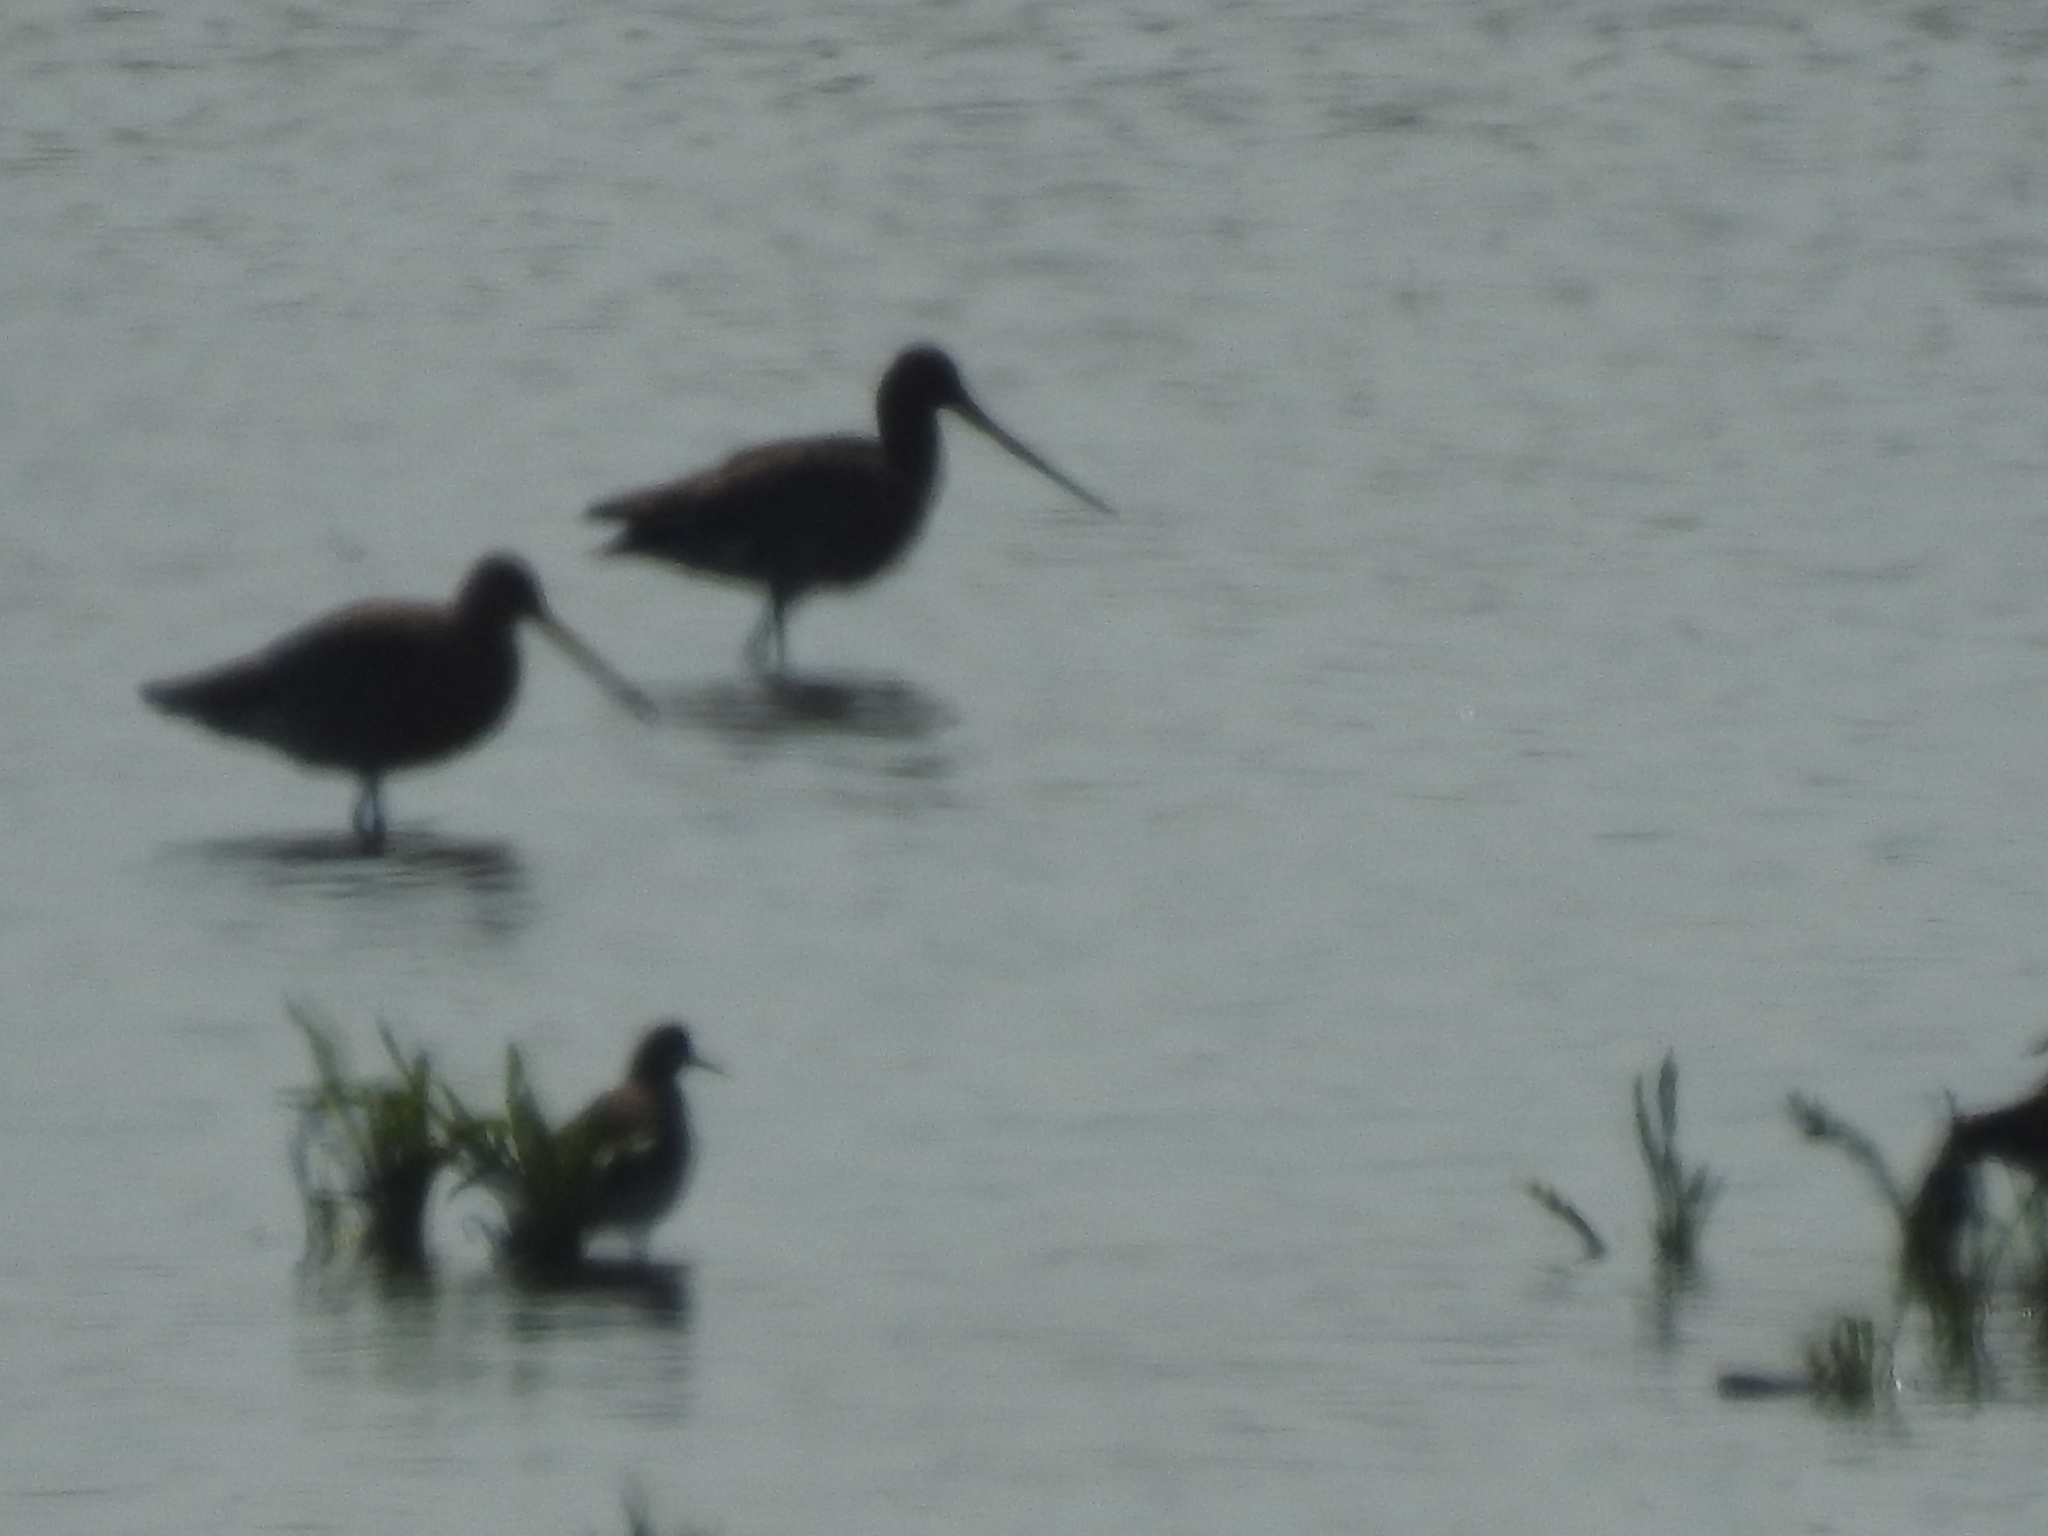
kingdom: Animalia
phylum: Chordata
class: Aves
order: Charadriiformes
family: Scolopacidae
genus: Limosa
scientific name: Limosa limosa
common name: Black-tailed godwit
